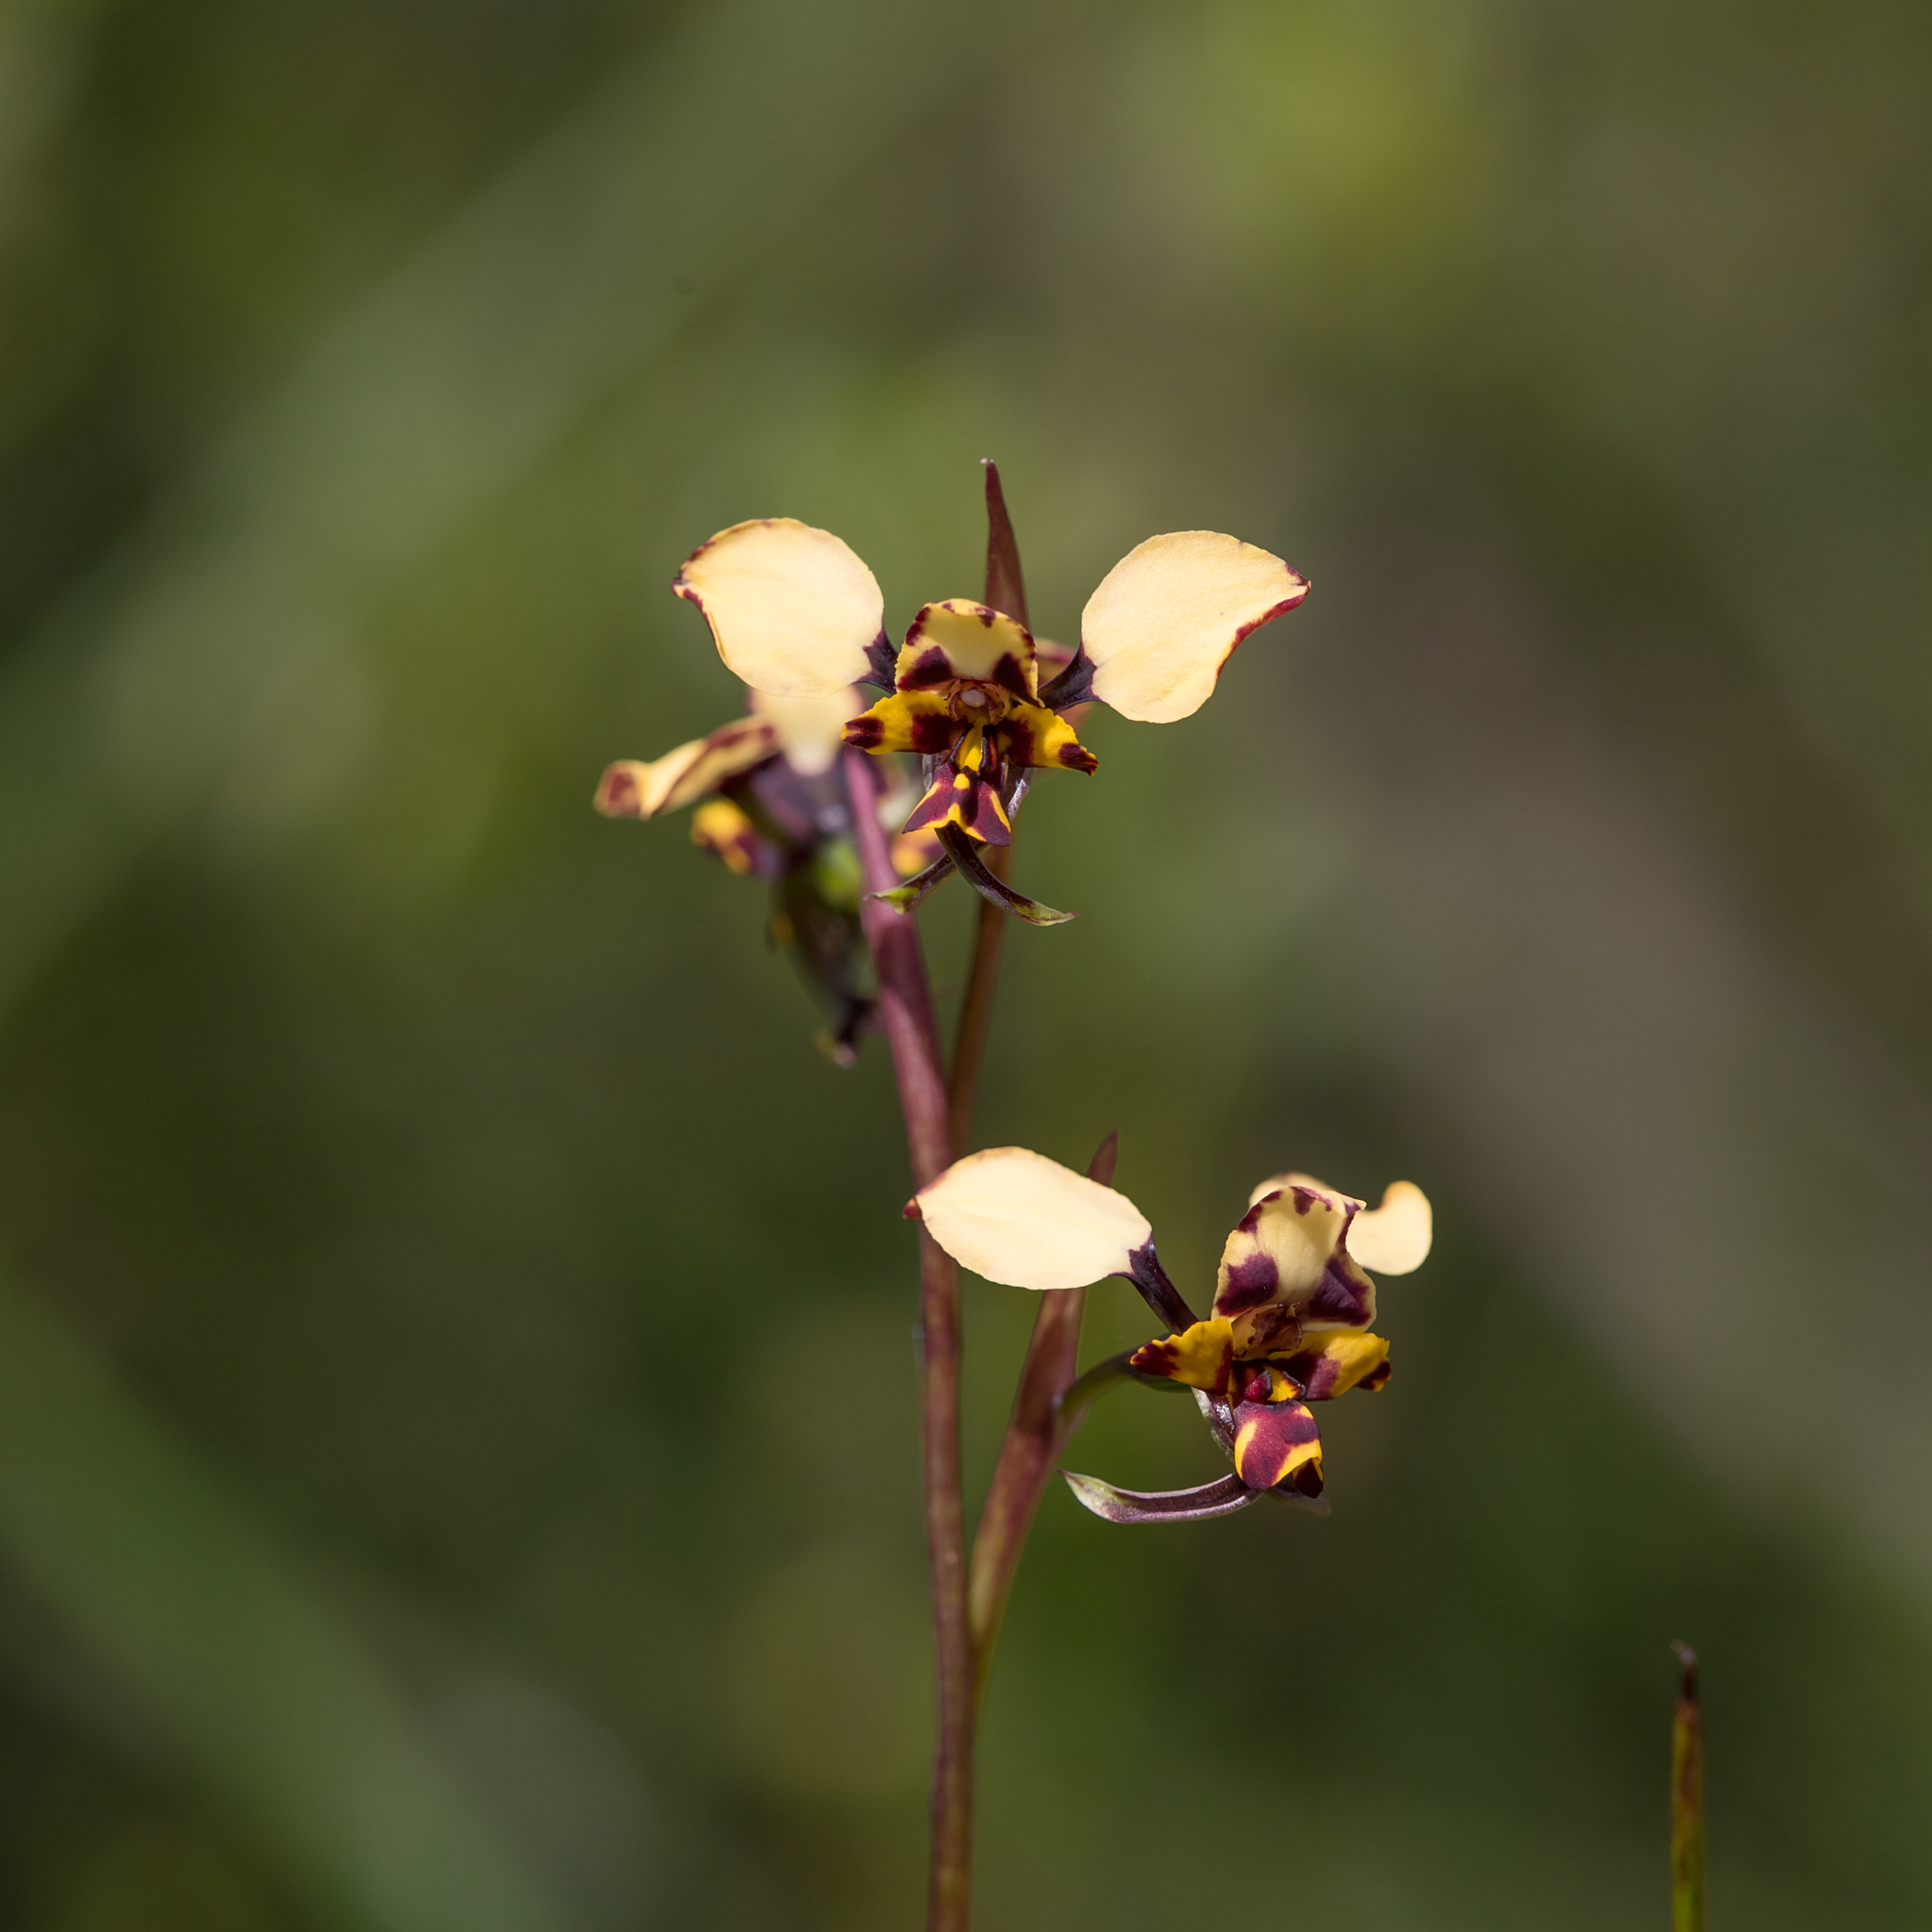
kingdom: Plantae
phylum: Tracheophyta
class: Liliopsida
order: Asparagales
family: Orchidaceae
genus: Diuris
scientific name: Diuris pardina
